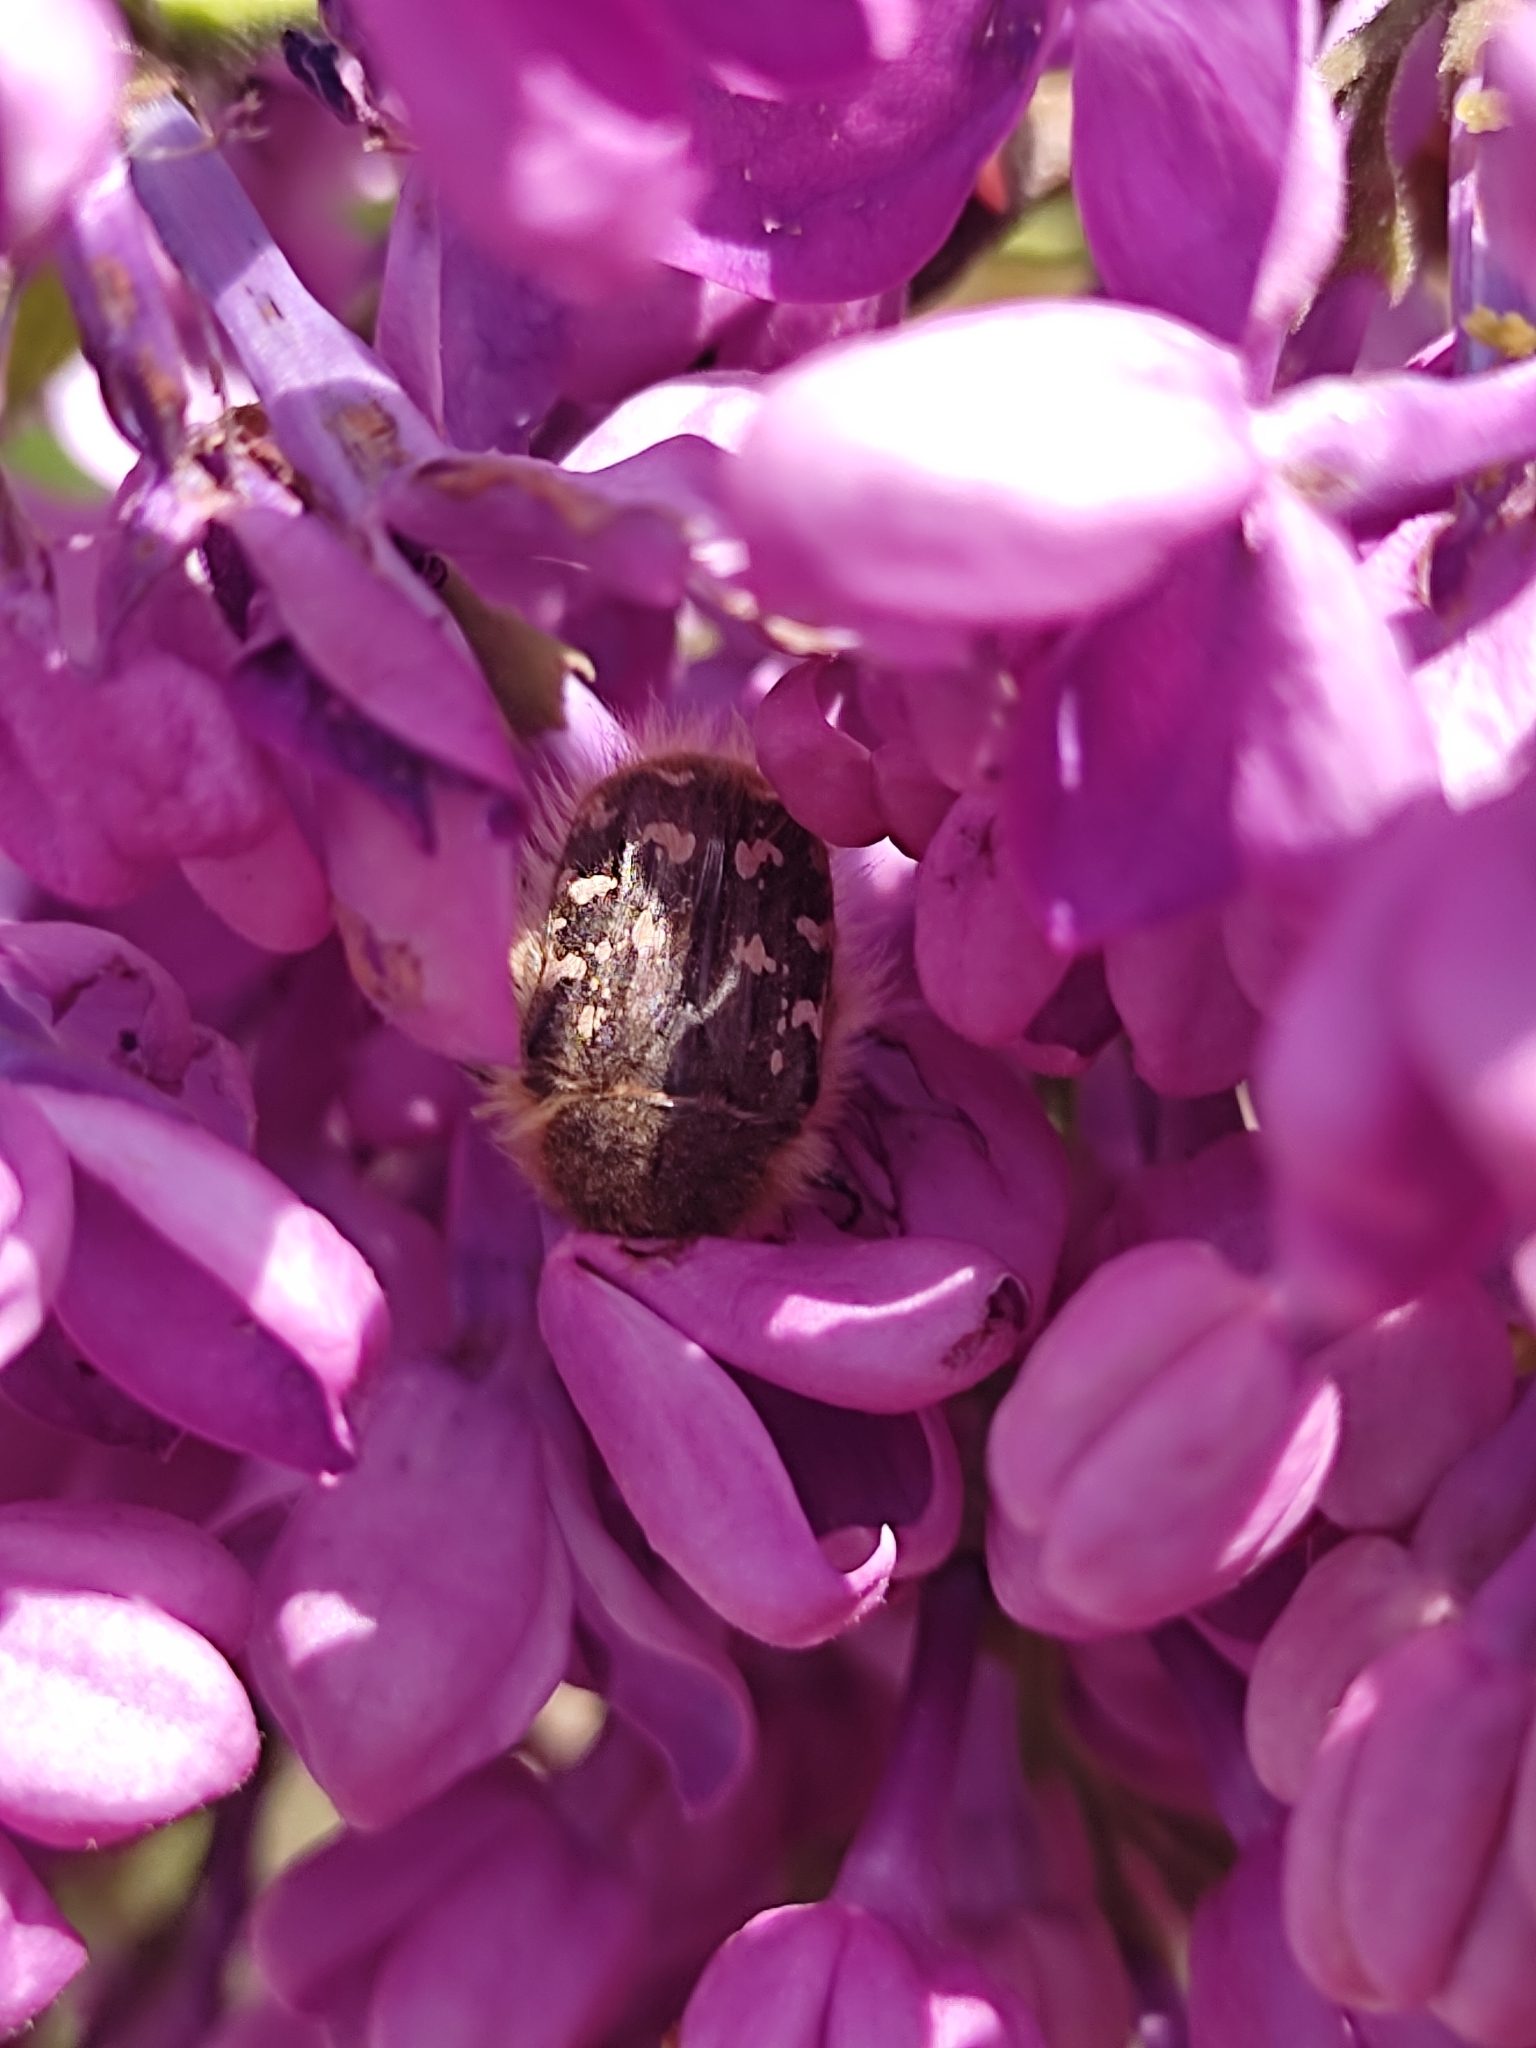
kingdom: Animalia
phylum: Arthropoda
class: Insecta
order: Coleoptera
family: Scarabaeidae
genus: Tropinota
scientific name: Tropinota hirta
